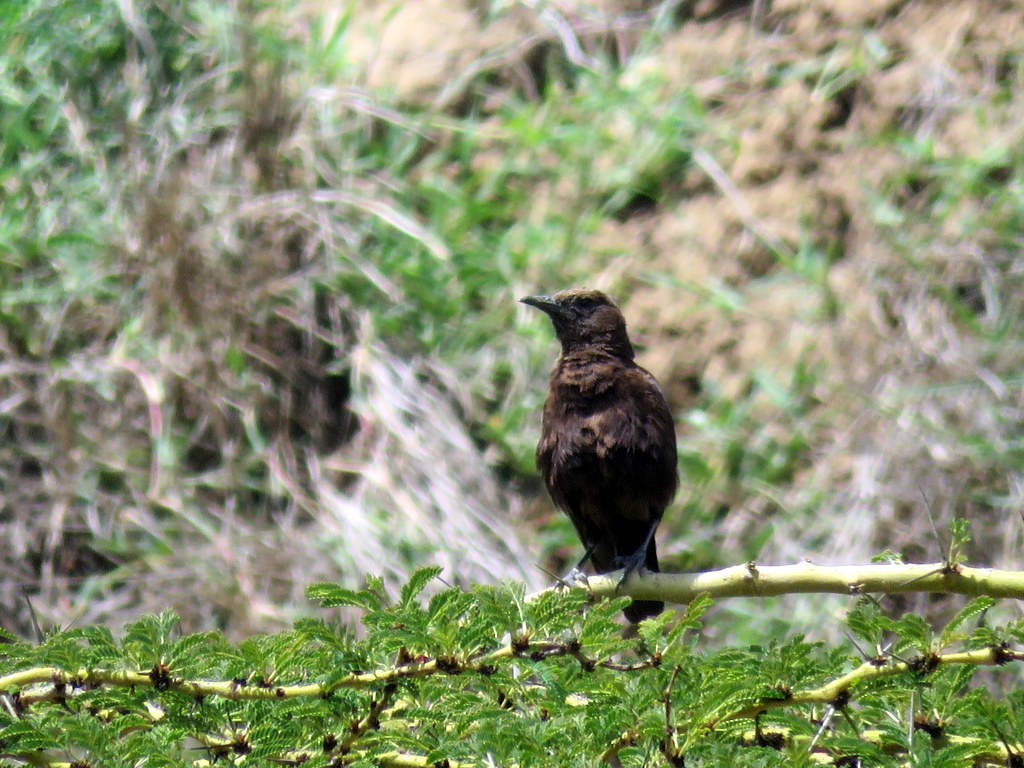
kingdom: Animalia
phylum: Chordata
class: Aves
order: Passeriformes
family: Muscicapidae
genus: Myrmecocichla
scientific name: Myrmecocichla aethiops
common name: Anteater chat
